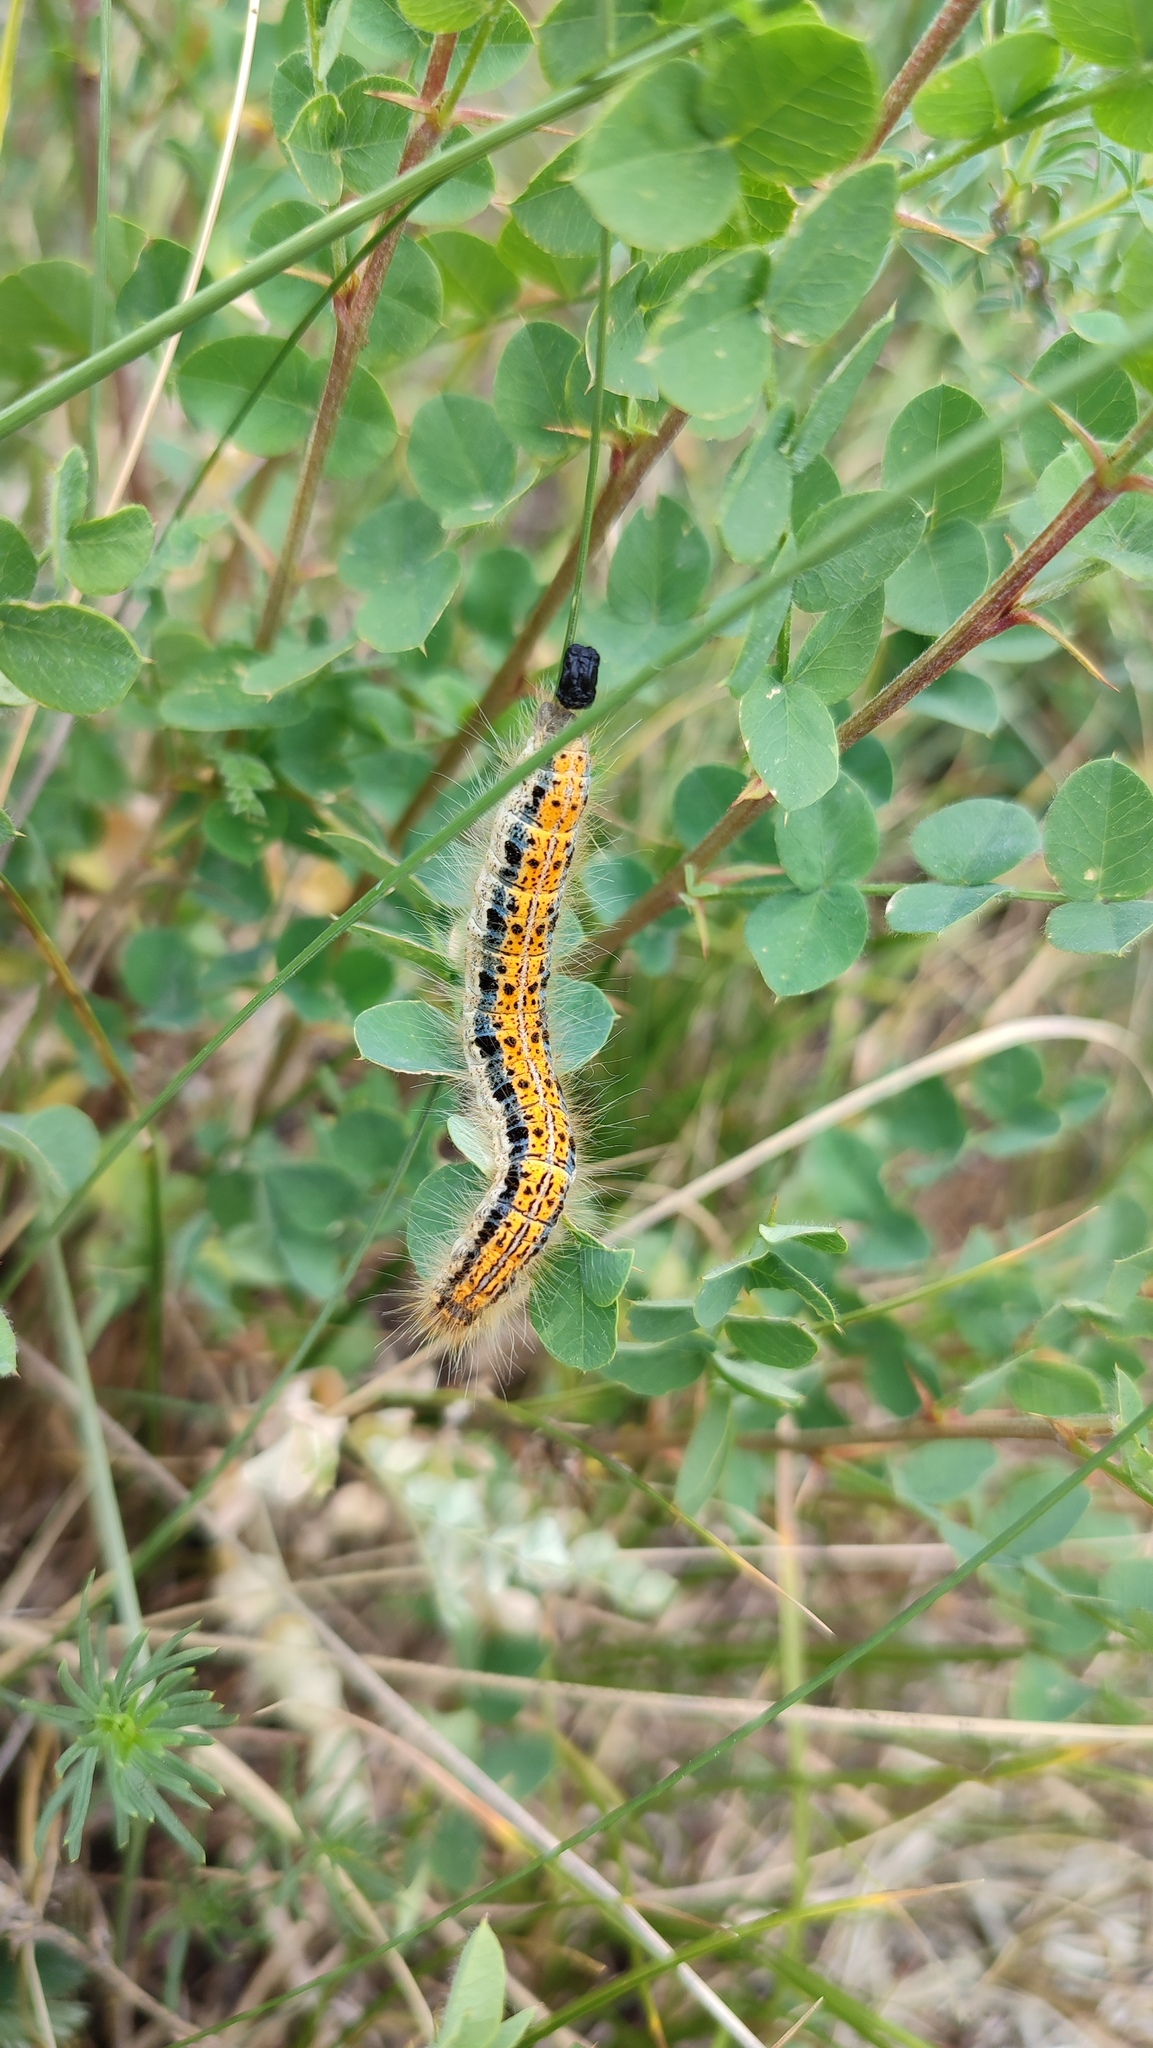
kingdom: Animalia
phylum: Arthropoda
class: Insecta
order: Lepidoptera
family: Lasiocampidae
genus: Malacosoma
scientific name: Malacosoma castrense
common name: Ground lackey
